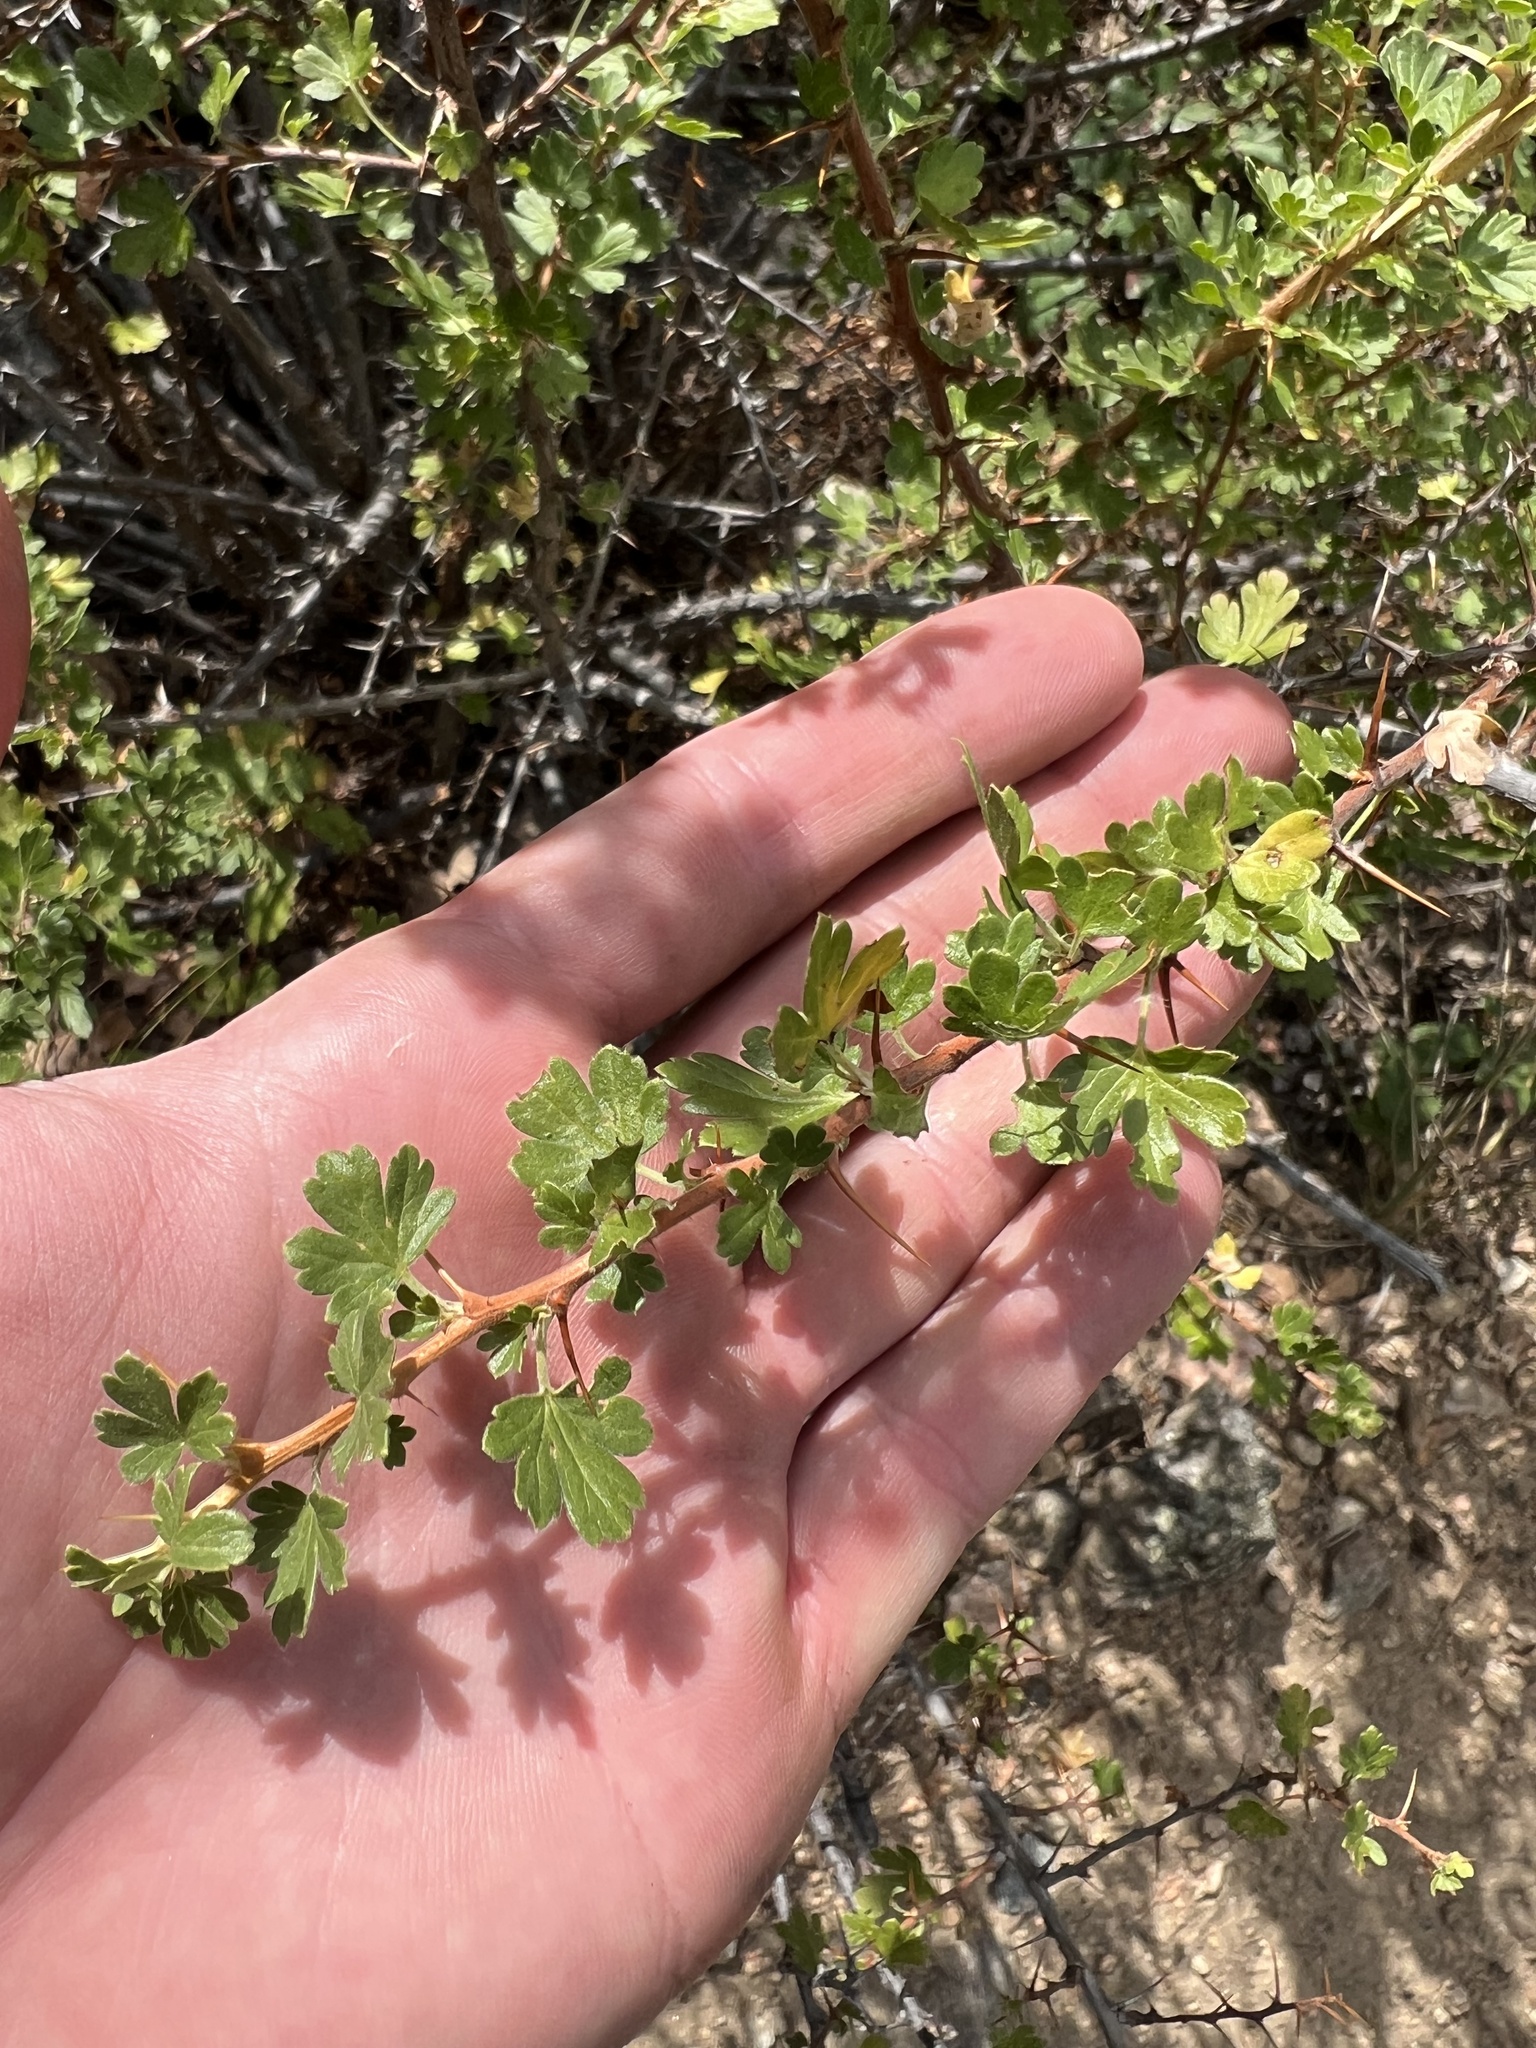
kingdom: Plantae
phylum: Tracheophyta
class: Magnoliopsida
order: Saxifragales
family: Grossulariaceae
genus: Ribes
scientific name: Ribes leptanthum
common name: Trumpet gooseberry
